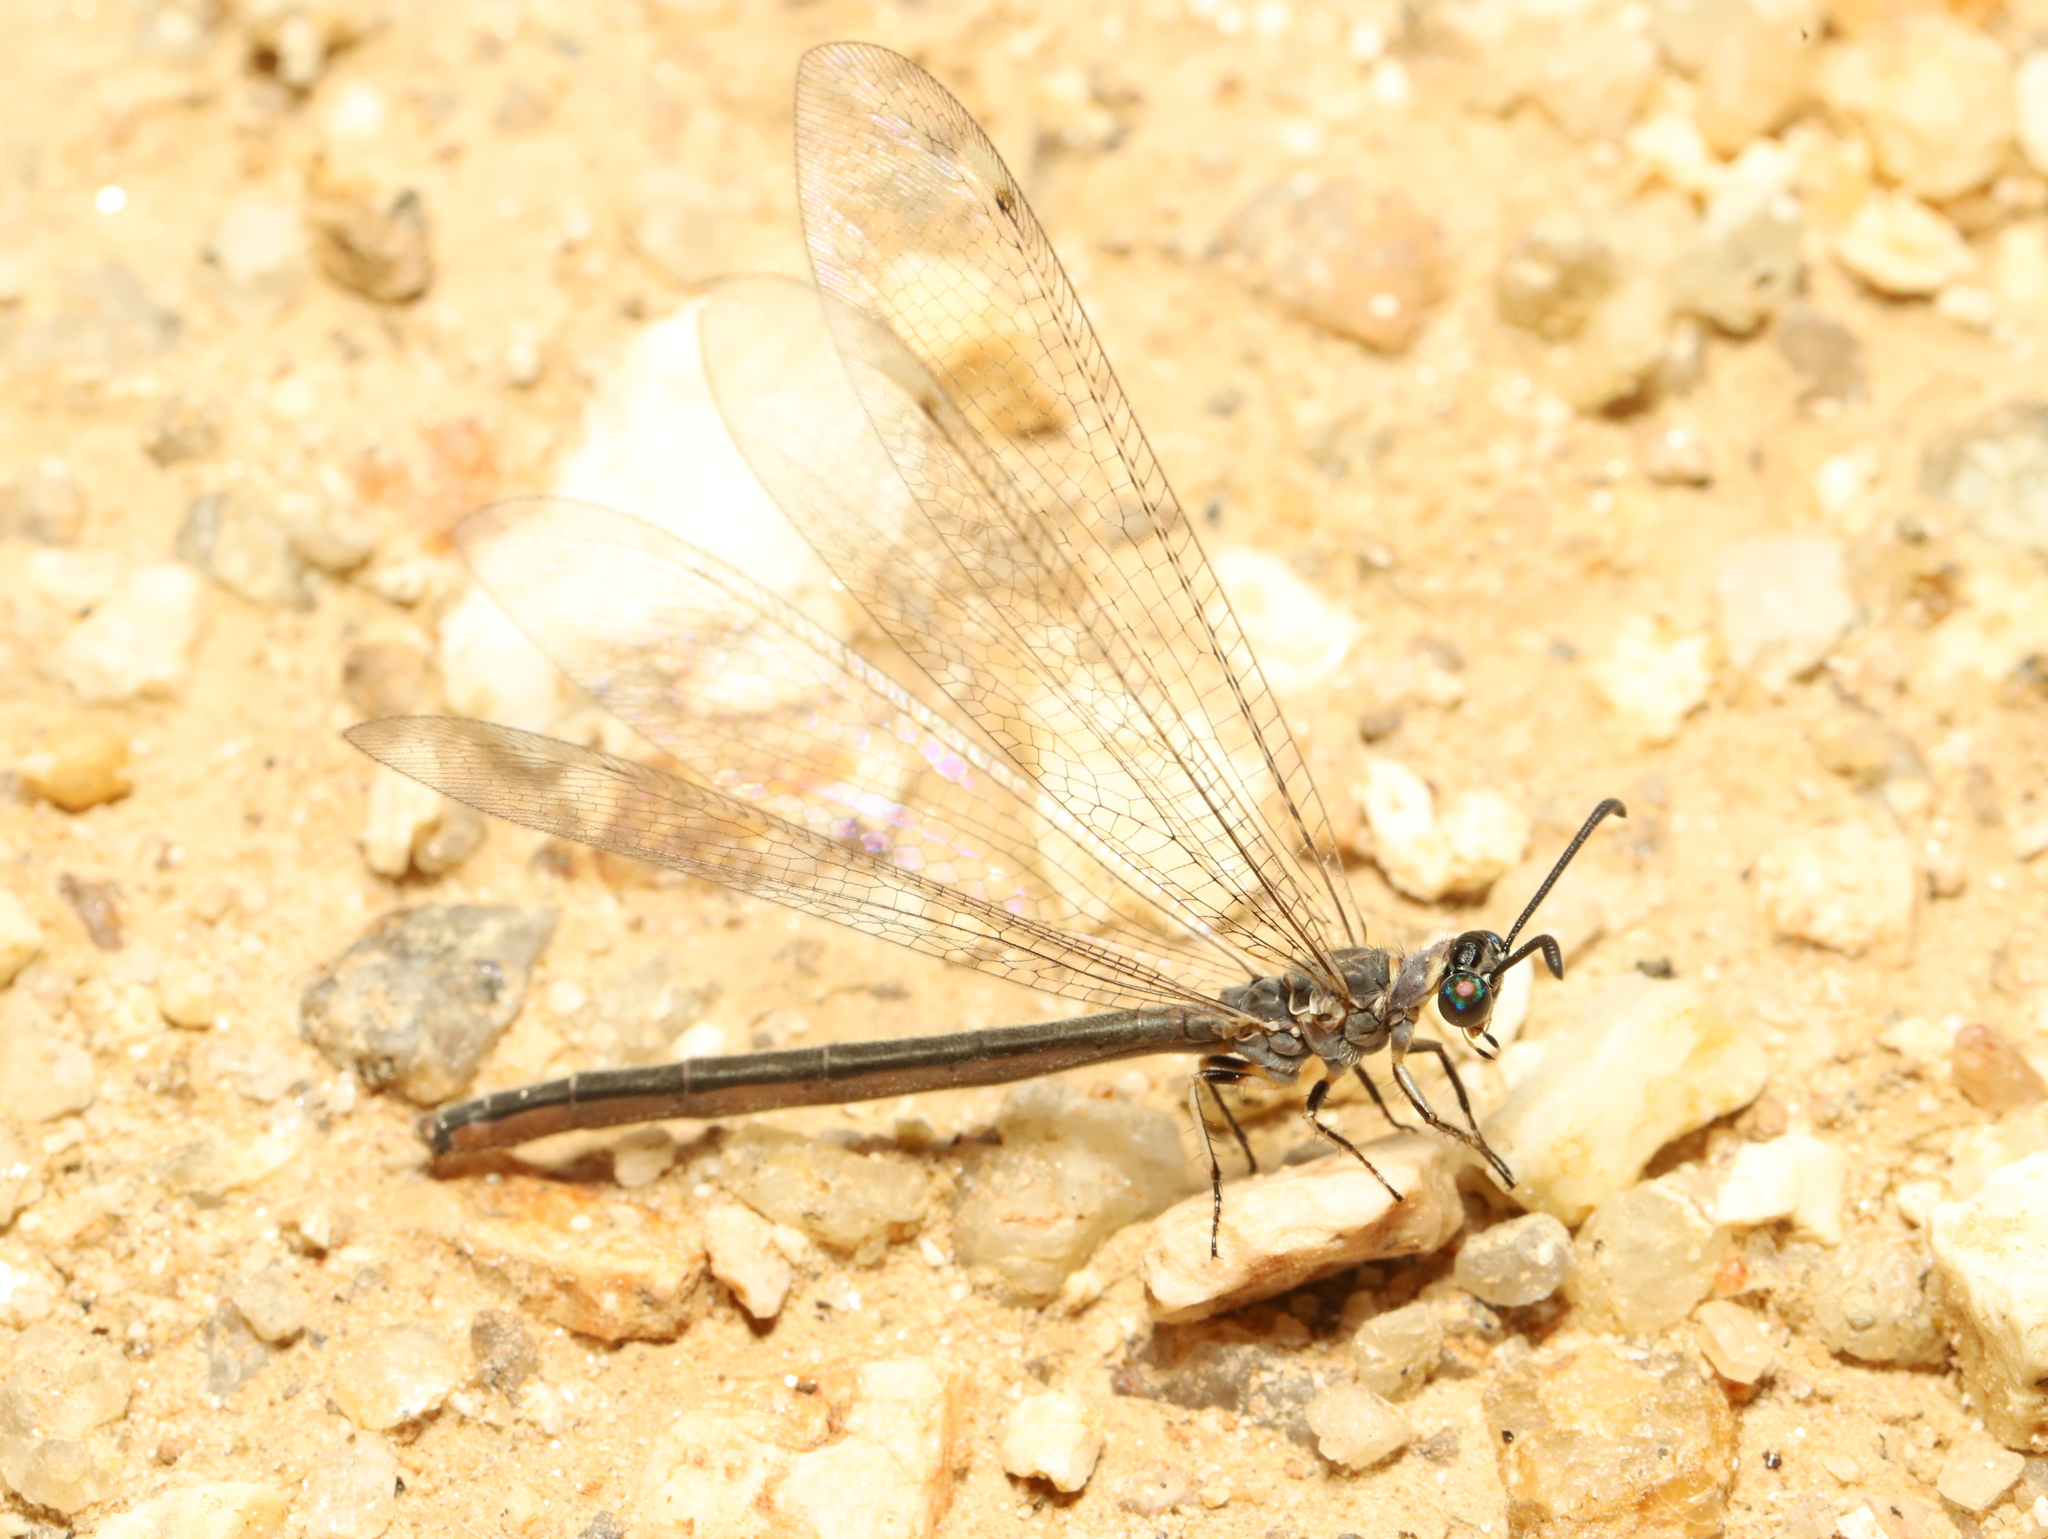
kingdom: Animalia
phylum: Arthropoda
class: Insecta
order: Neuroptera
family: Myrmeleontidae
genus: Myrmeleon
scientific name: Myrmeleon acer
